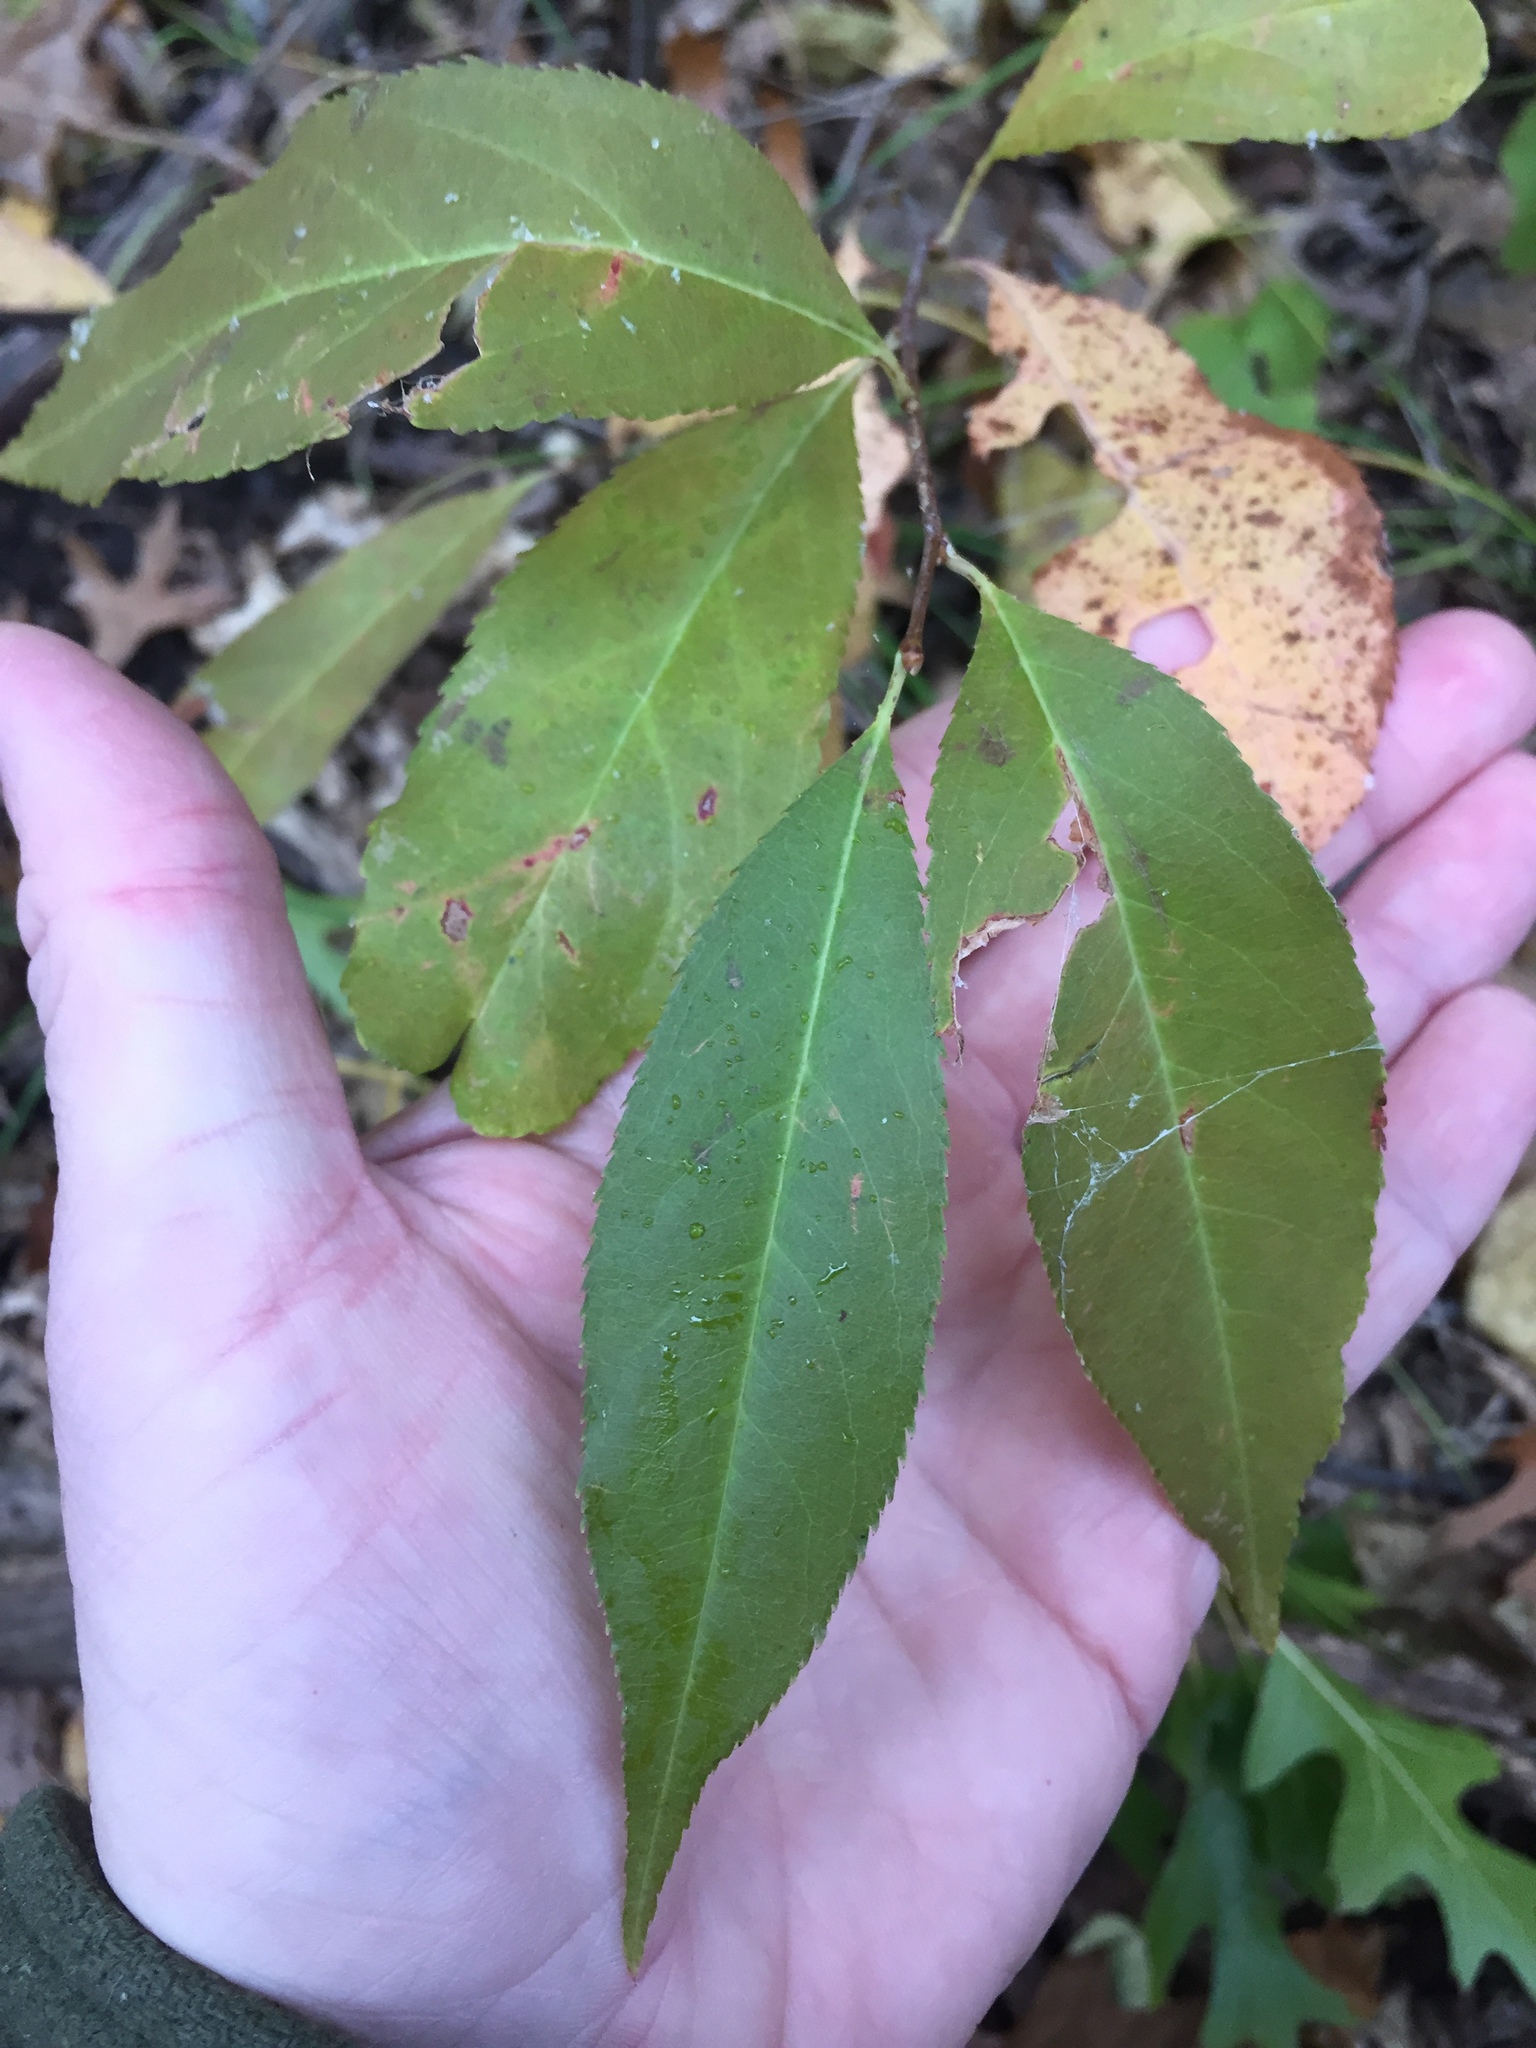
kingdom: Plantae
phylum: Tracheophyta
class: Magnoliopsida
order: Rosales
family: Rosaceae
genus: Prunus
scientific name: Prunus serotina
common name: Black cherry
